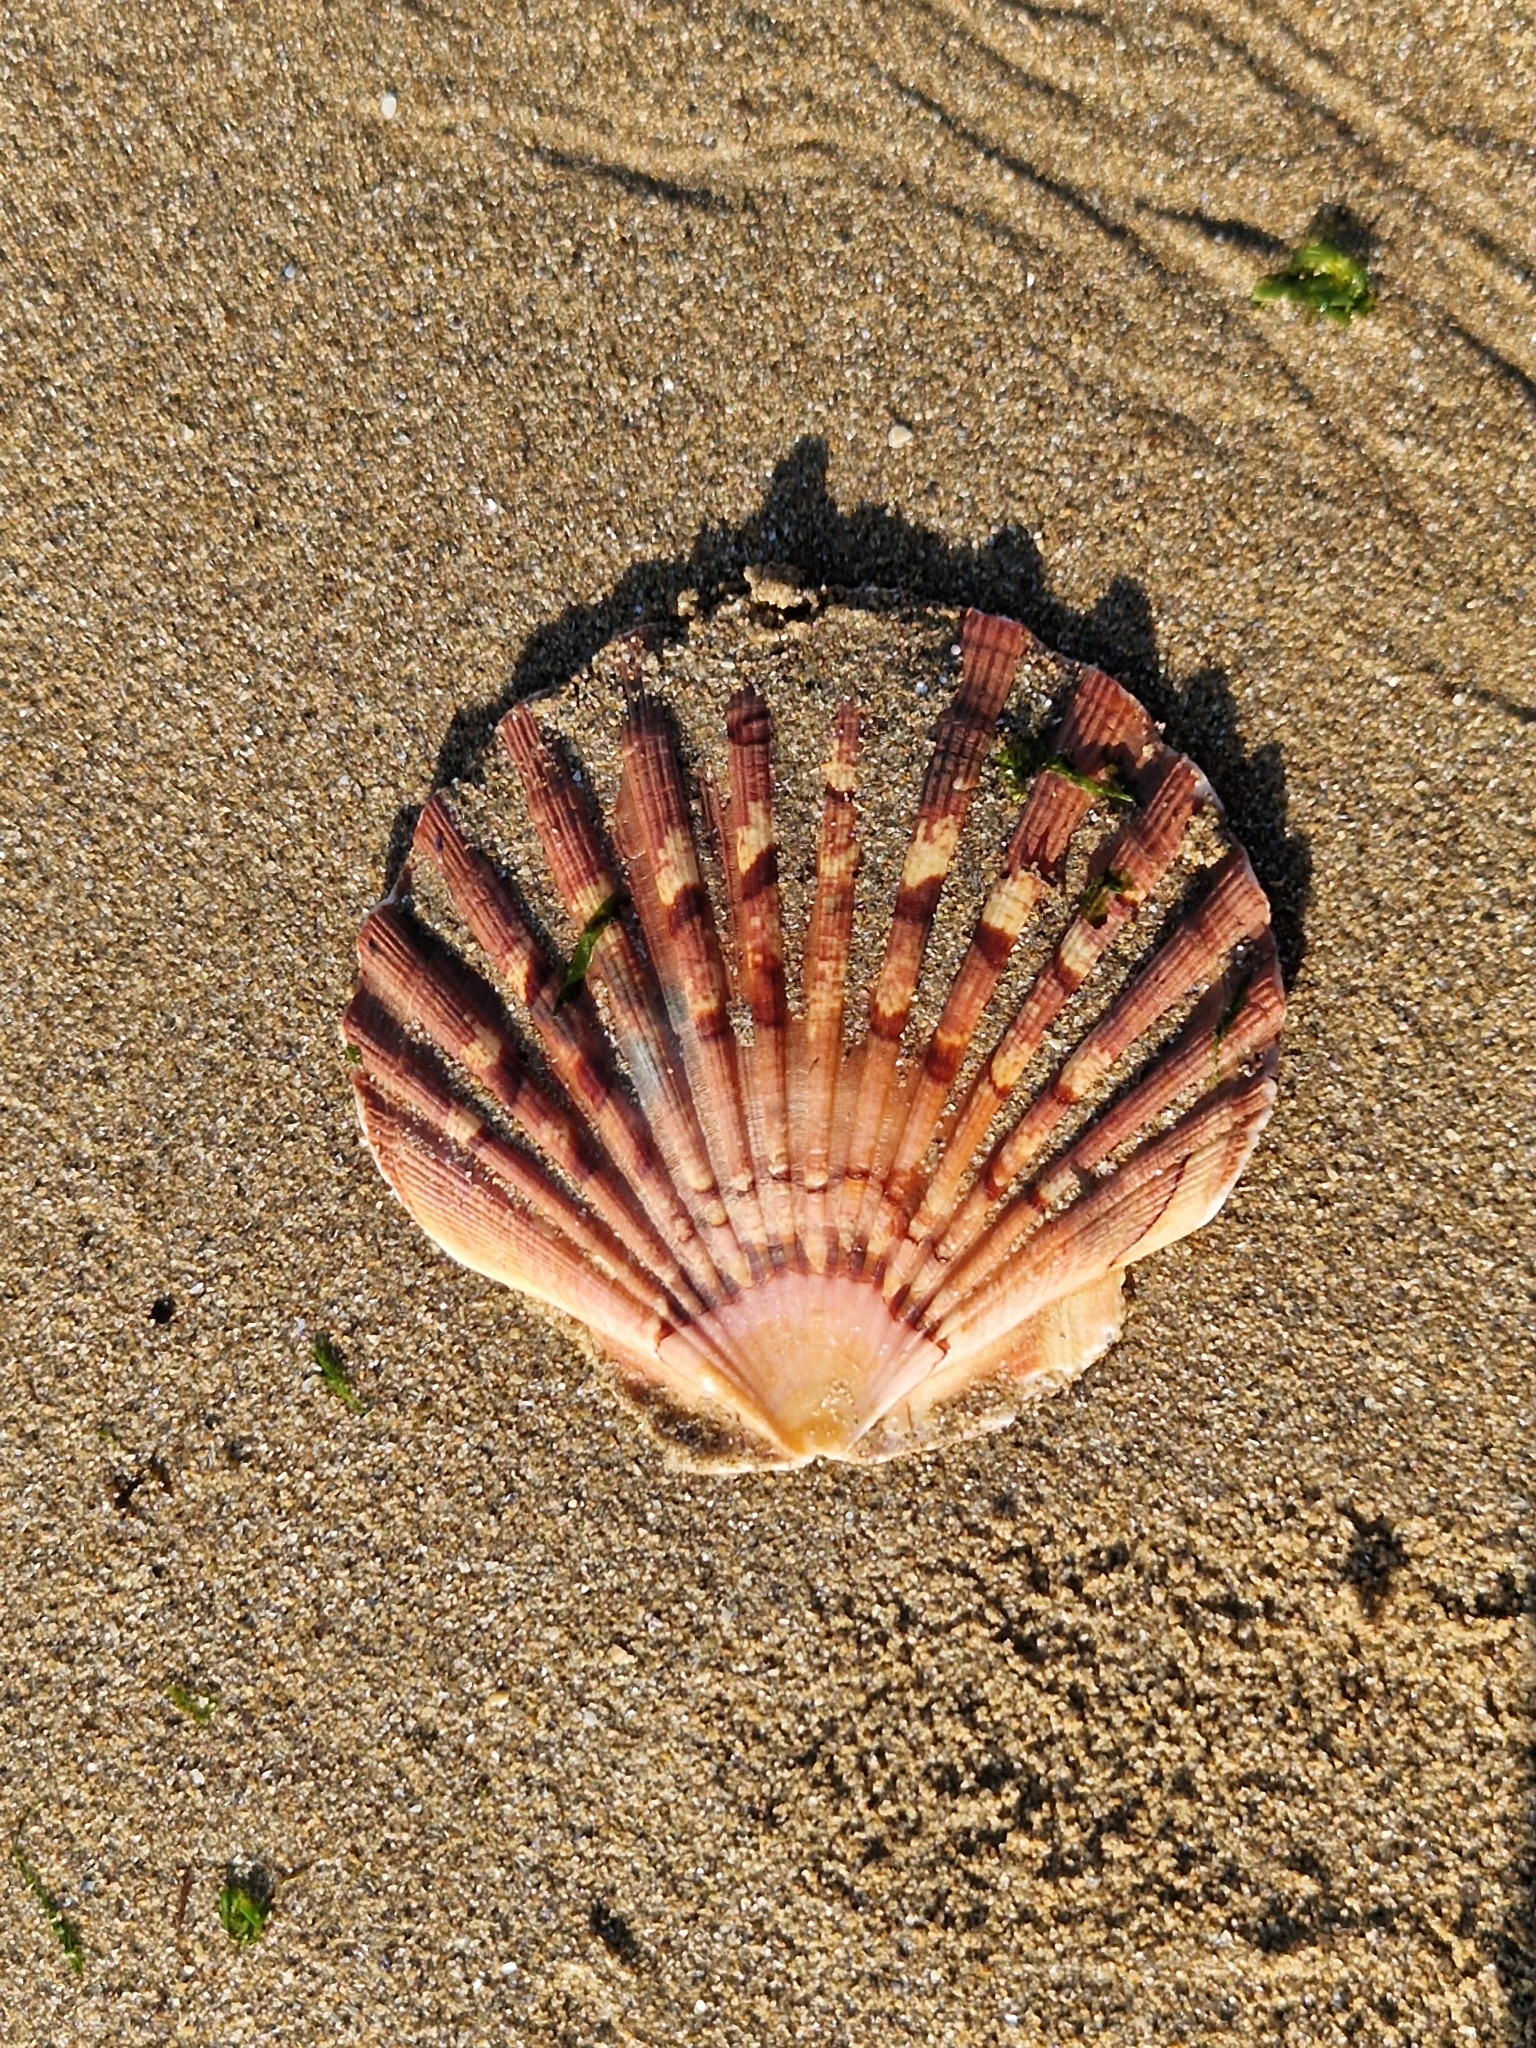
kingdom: Animalia
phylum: Mollusca
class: Bivalvia
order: Pectinida
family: Pectinidae
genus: Pecten
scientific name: Pecten maximus
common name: Great scallop
